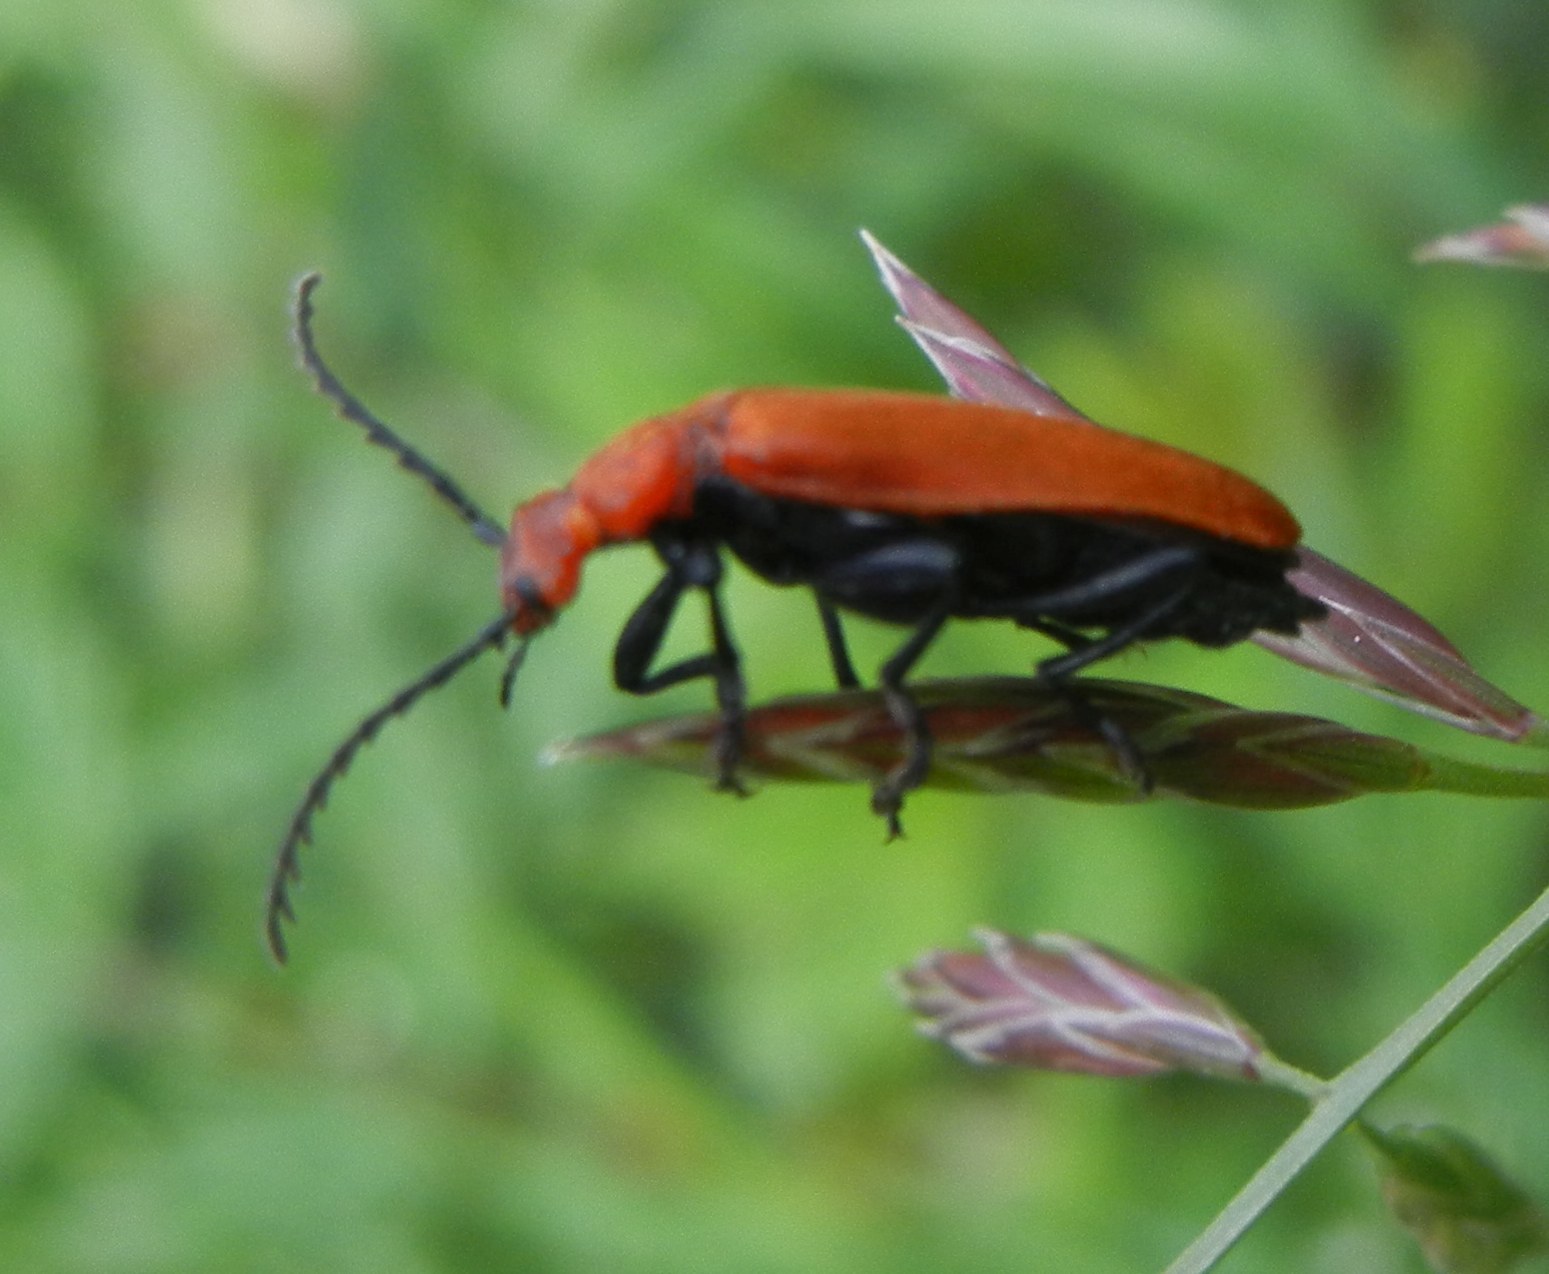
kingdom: Animalia
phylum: Arthropoda
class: Insecta
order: Coleoptera
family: Pyrochroidae
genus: Pyrochroa
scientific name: Pyrochroa serraticornis
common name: Red-headed cardinal beetle
